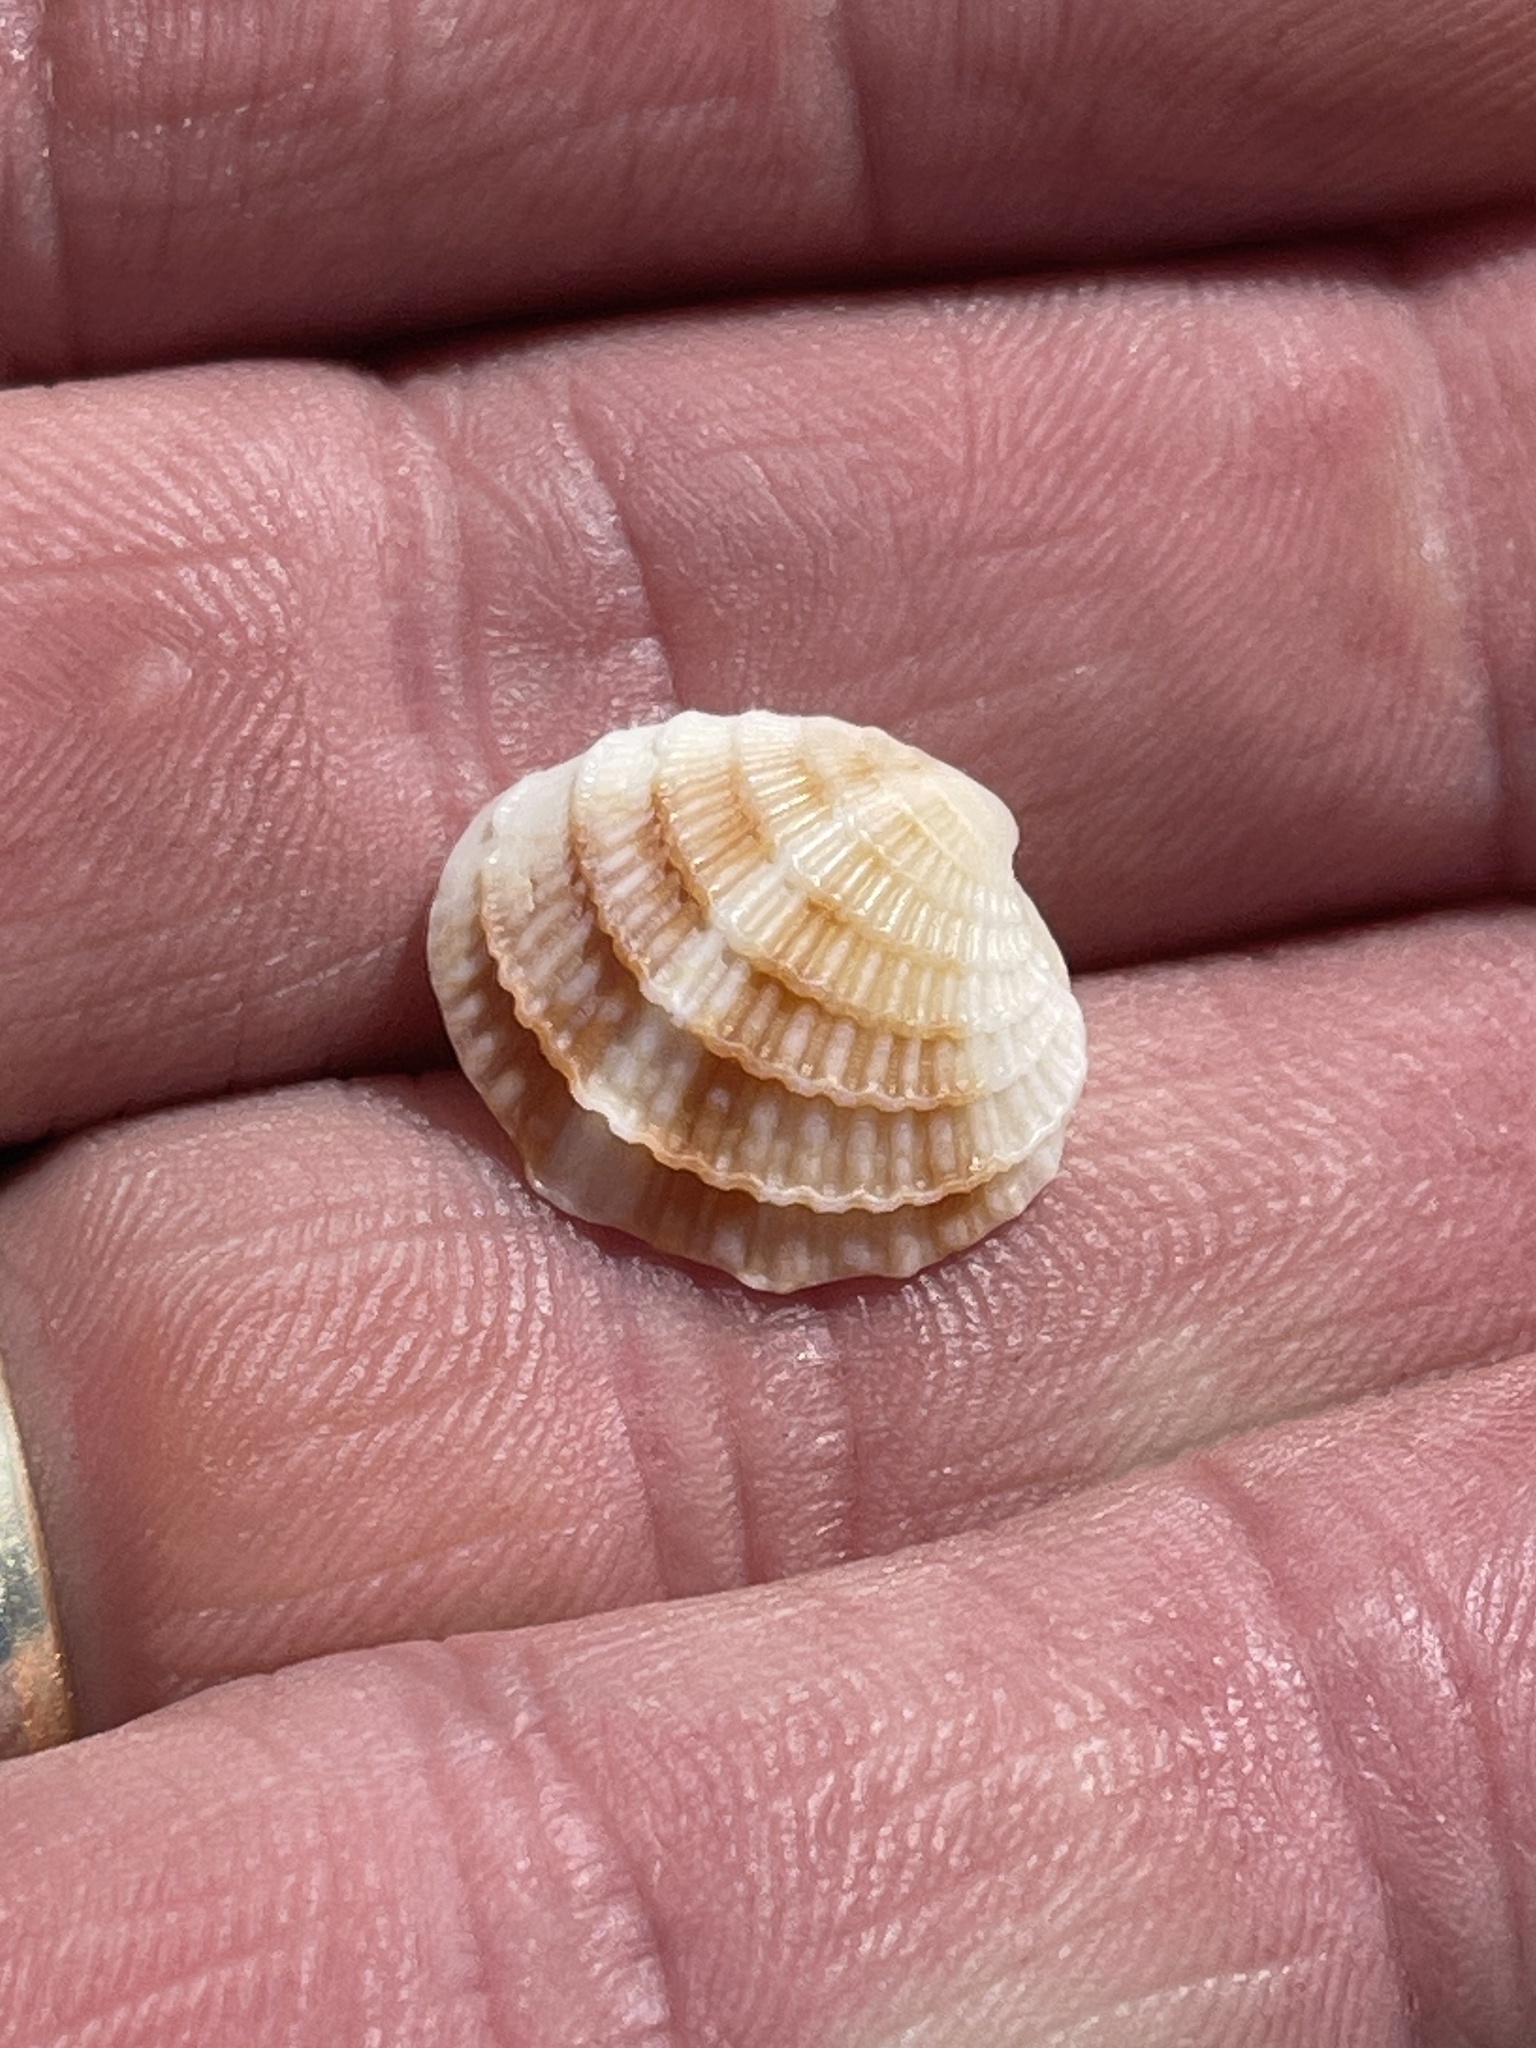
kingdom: Animalia
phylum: Mollusca
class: Bivalvia
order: Venerida
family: Veneridae
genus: Chione
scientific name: Chione elevata
